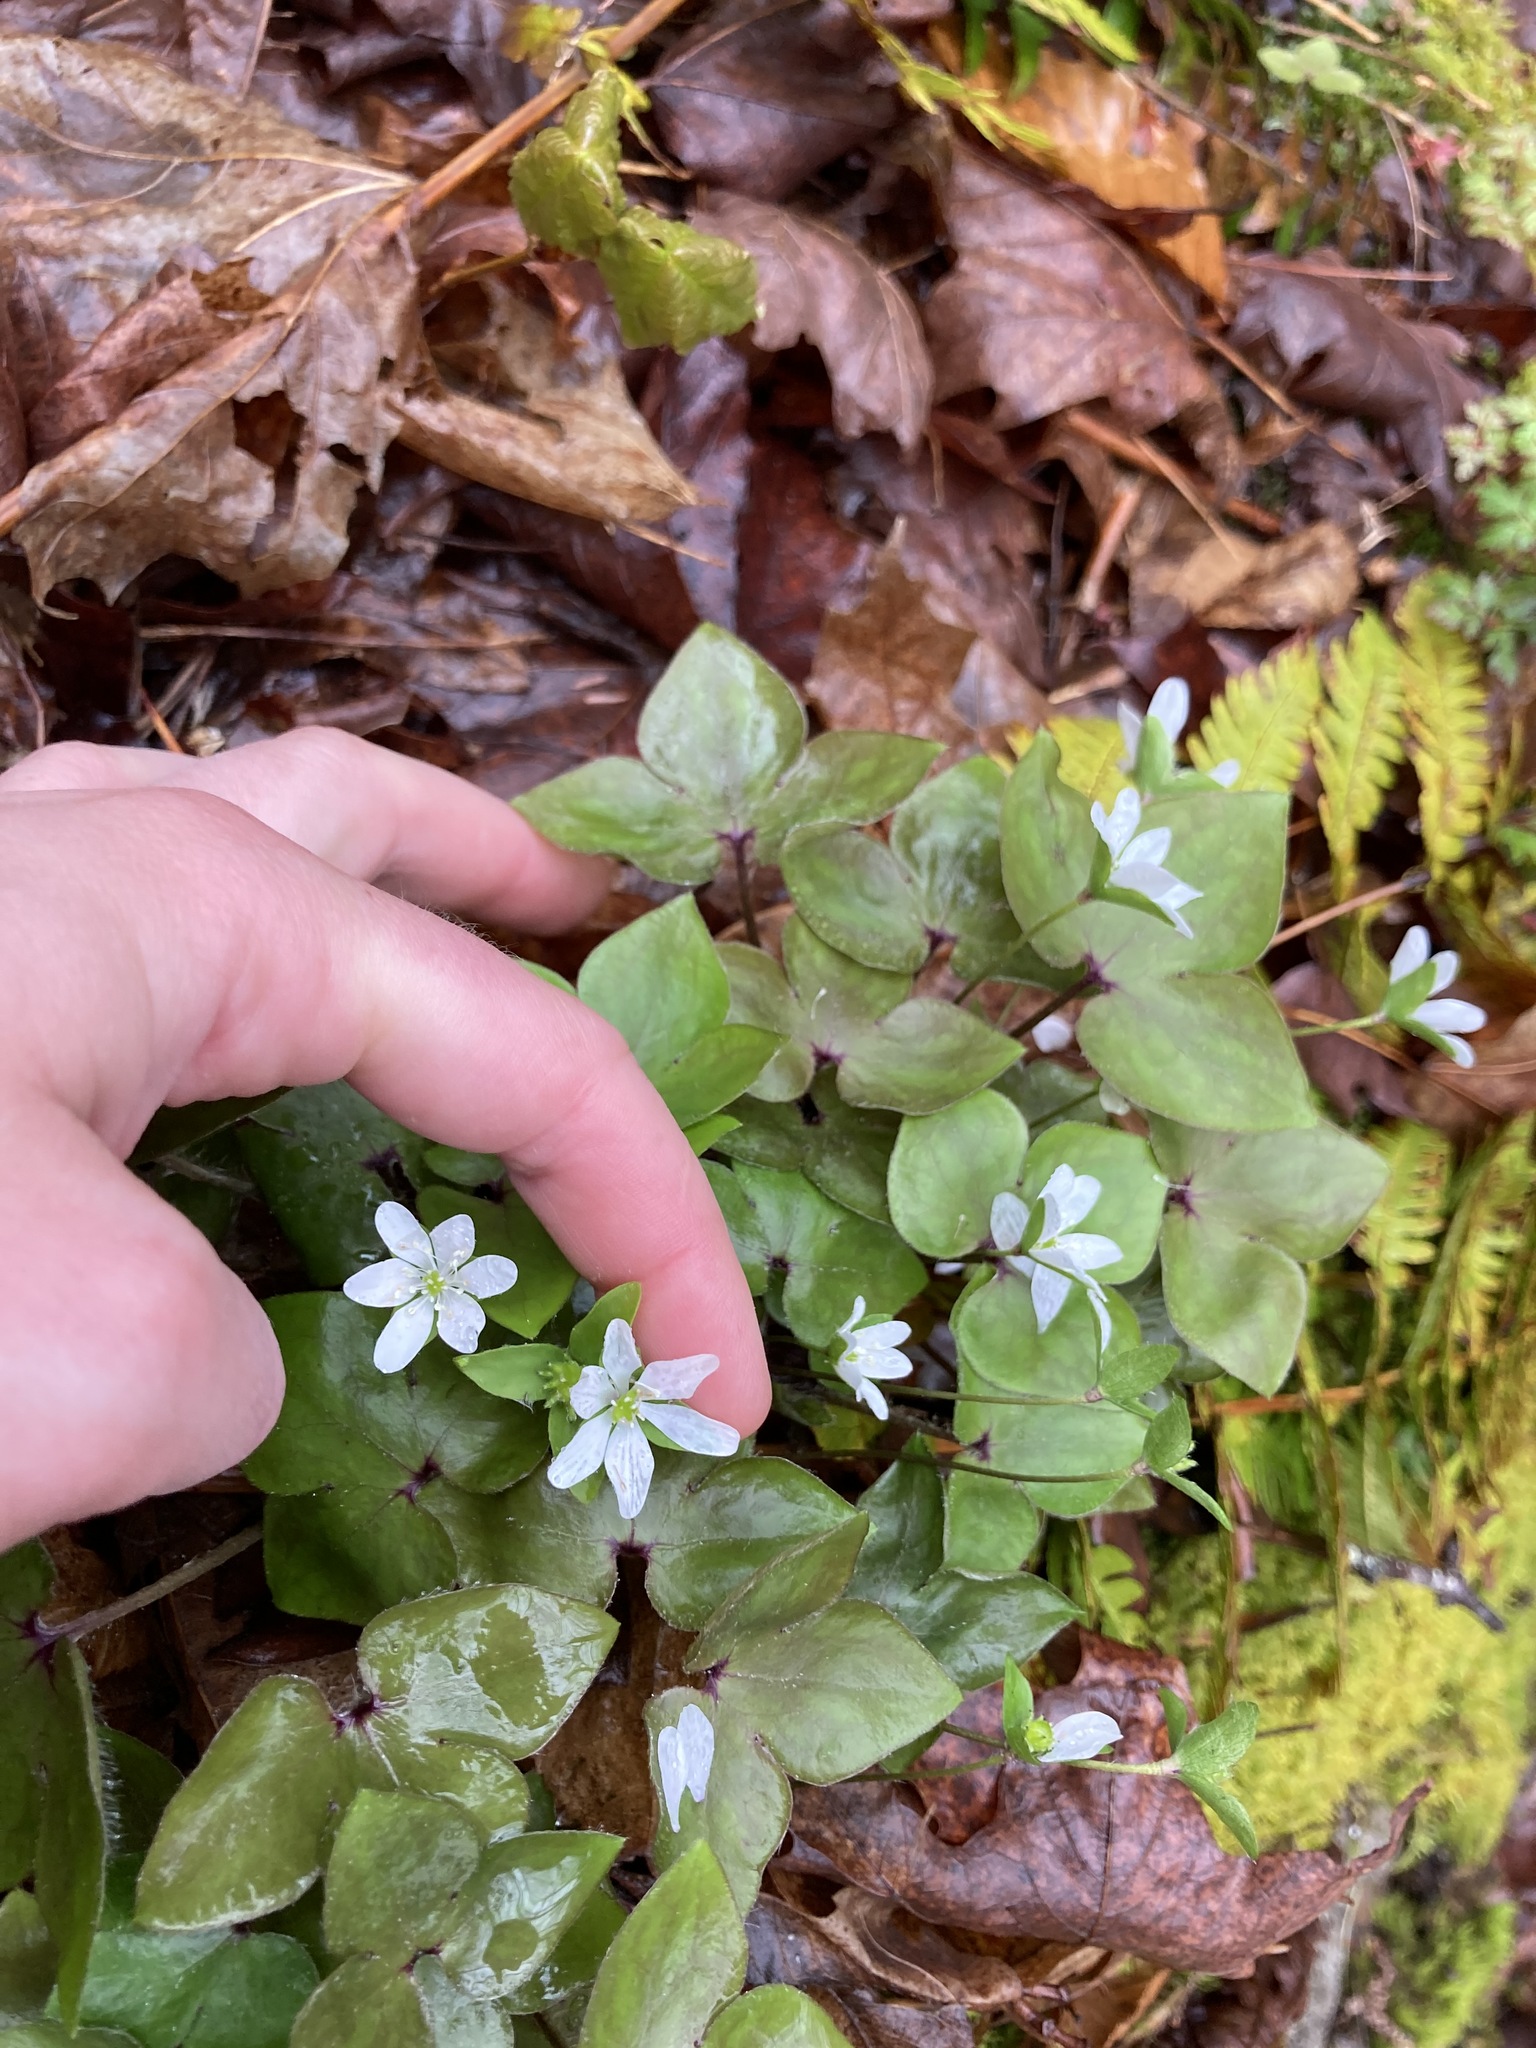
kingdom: Plantae
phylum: Tracheophyta
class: Magnoliopsida
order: Ranunculales
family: Ranunculaceae
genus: Hepatica
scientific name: Hepatica acutiloba
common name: Sharp-lobed hepatica
